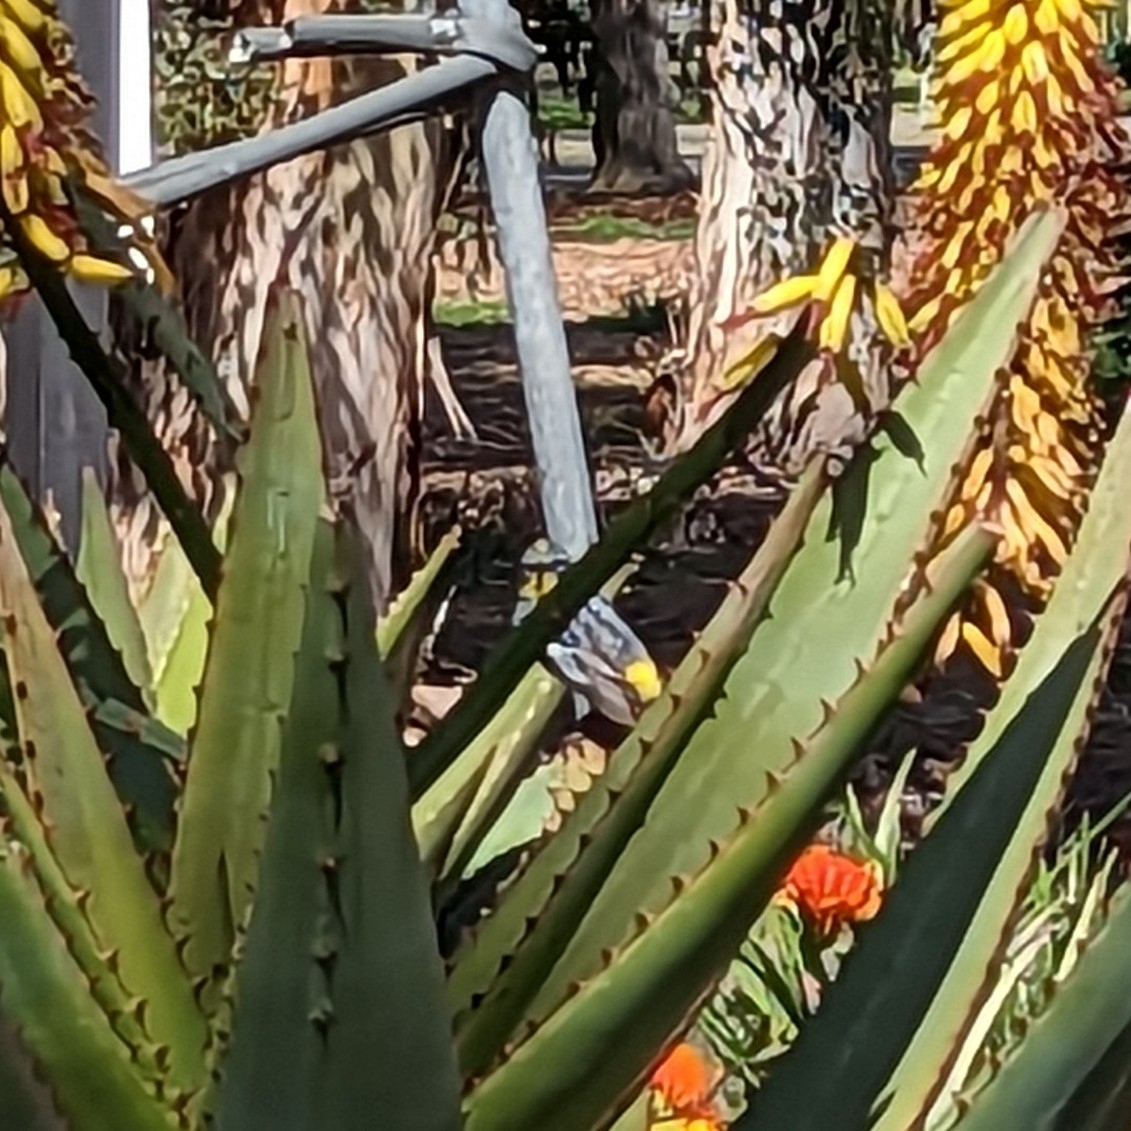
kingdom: Animalia
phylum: Chordata
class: Aves
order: Passeriformes
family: Parulidae
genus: Setophaga
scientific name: Setophaga auduboni
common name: Audubon's warbler
